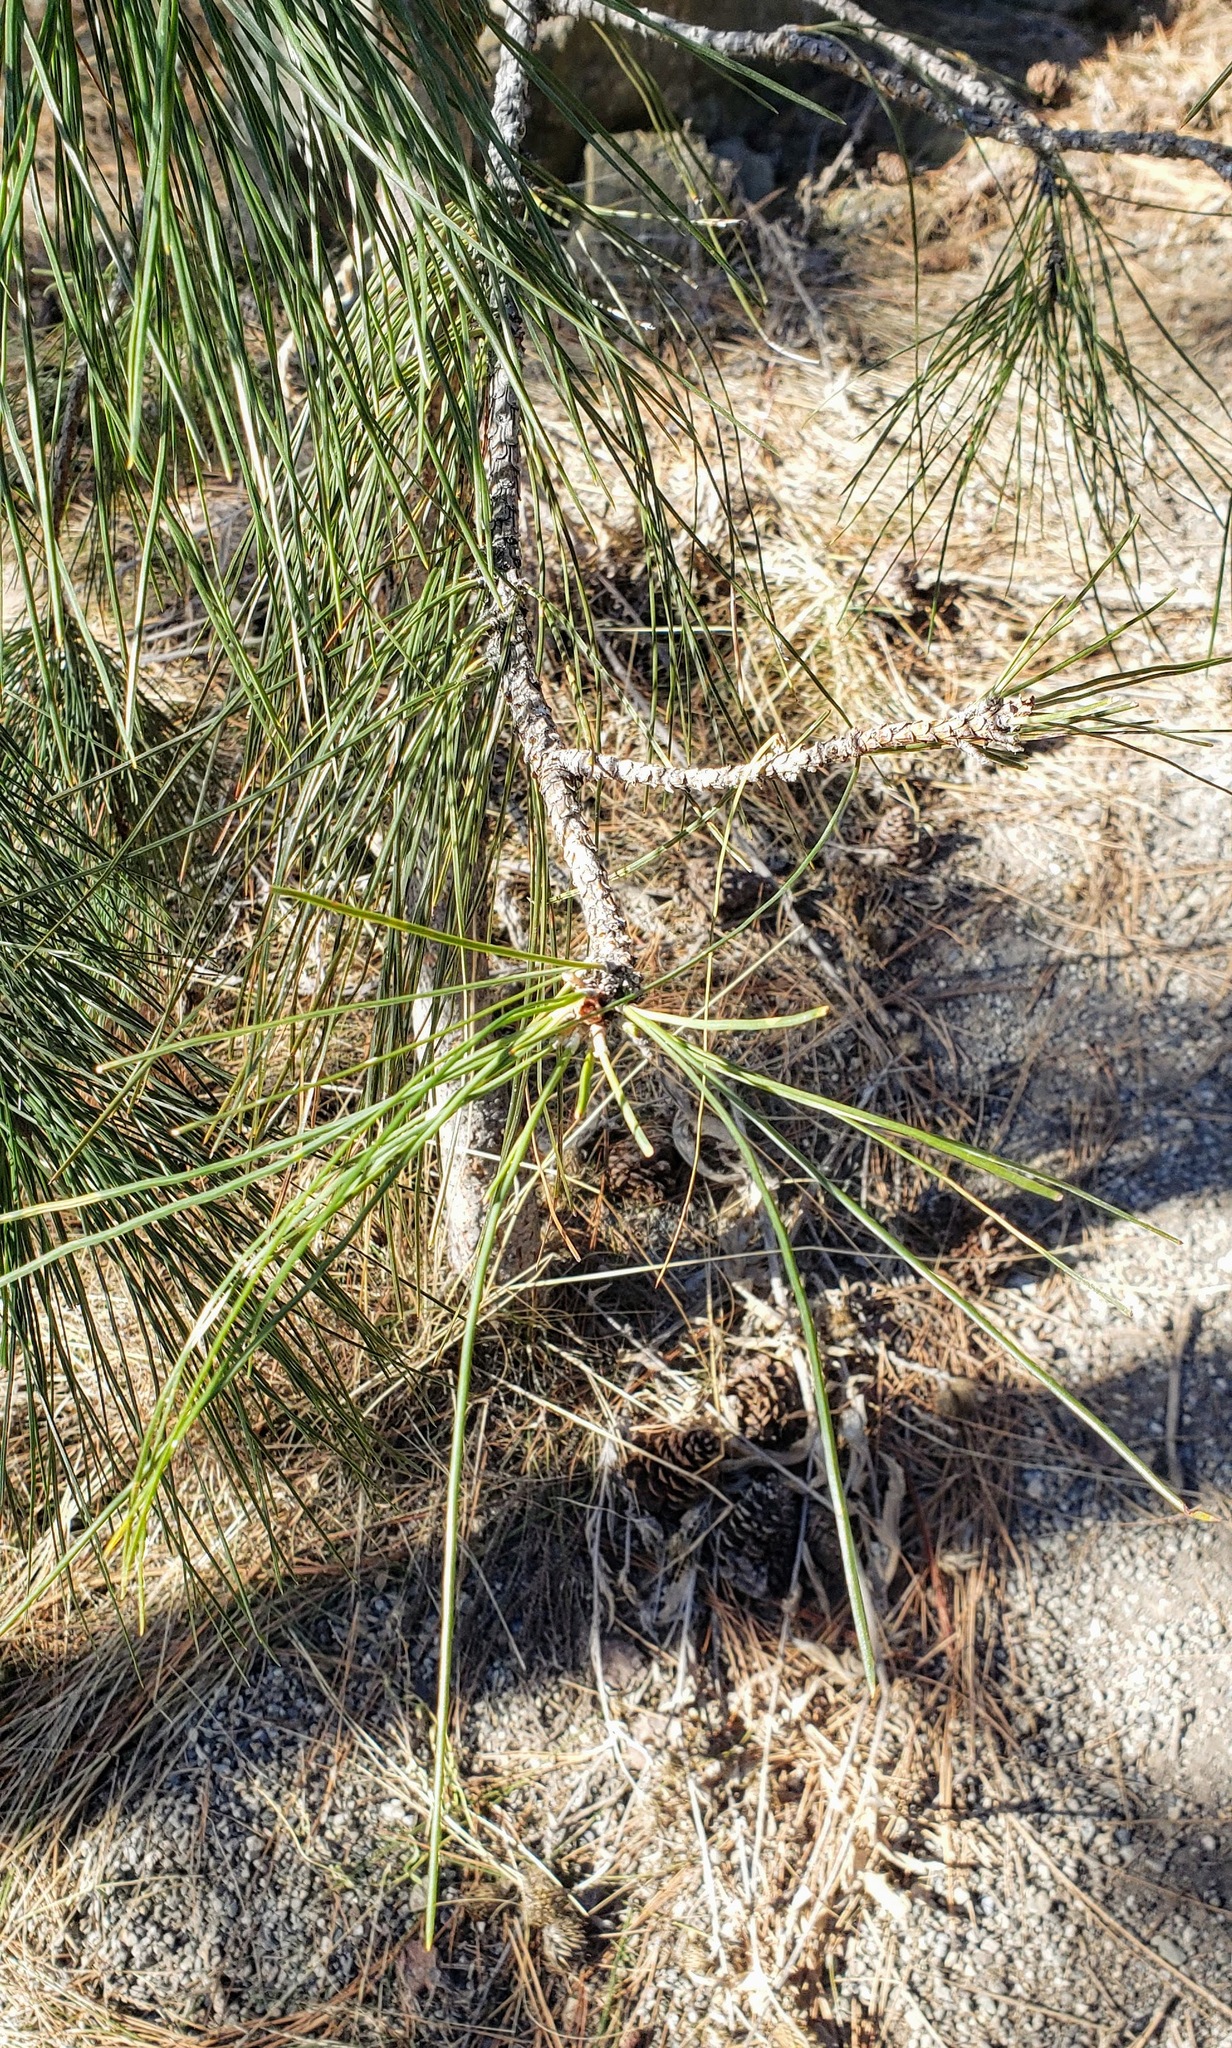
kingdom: Plantae
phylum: Tracheophyta
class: Pinopsida
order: Pinales
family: Pinaceae
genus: Pinus
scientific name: Pinus ponderosa
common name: Western yellow-pine
